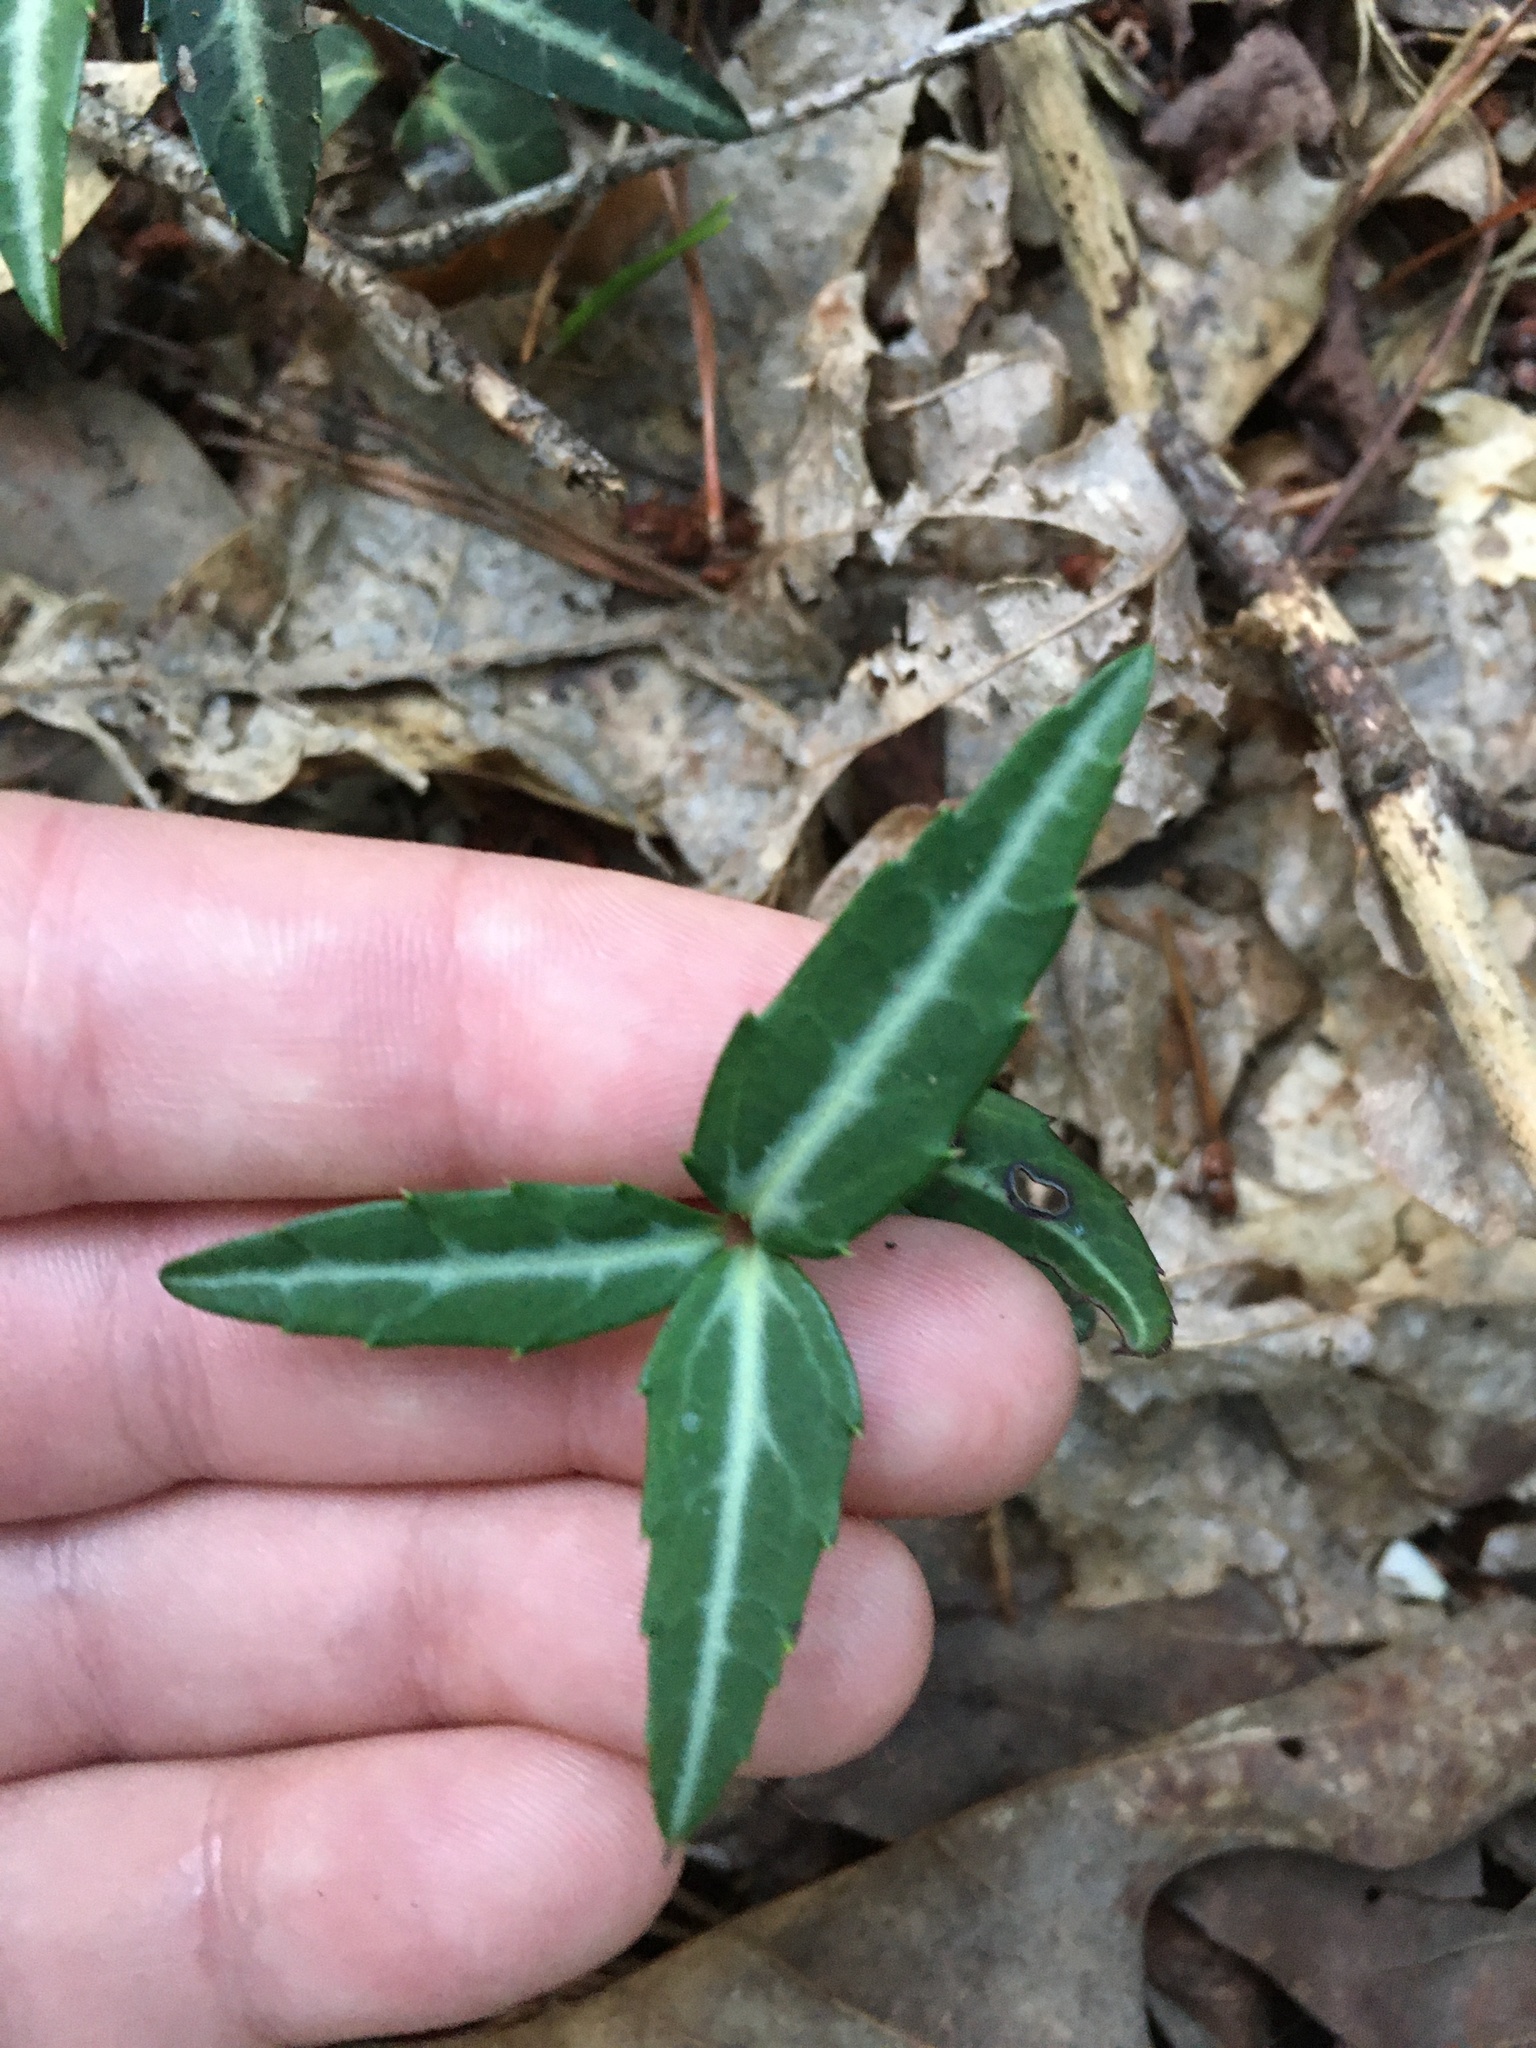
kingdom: Plantae
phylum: Tracheophyta
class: Magnoliopsida
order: Ericales
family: Ericaceae
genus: Chimaphila
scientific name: Chimaphila maculata
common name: Spotted pipsissewa
